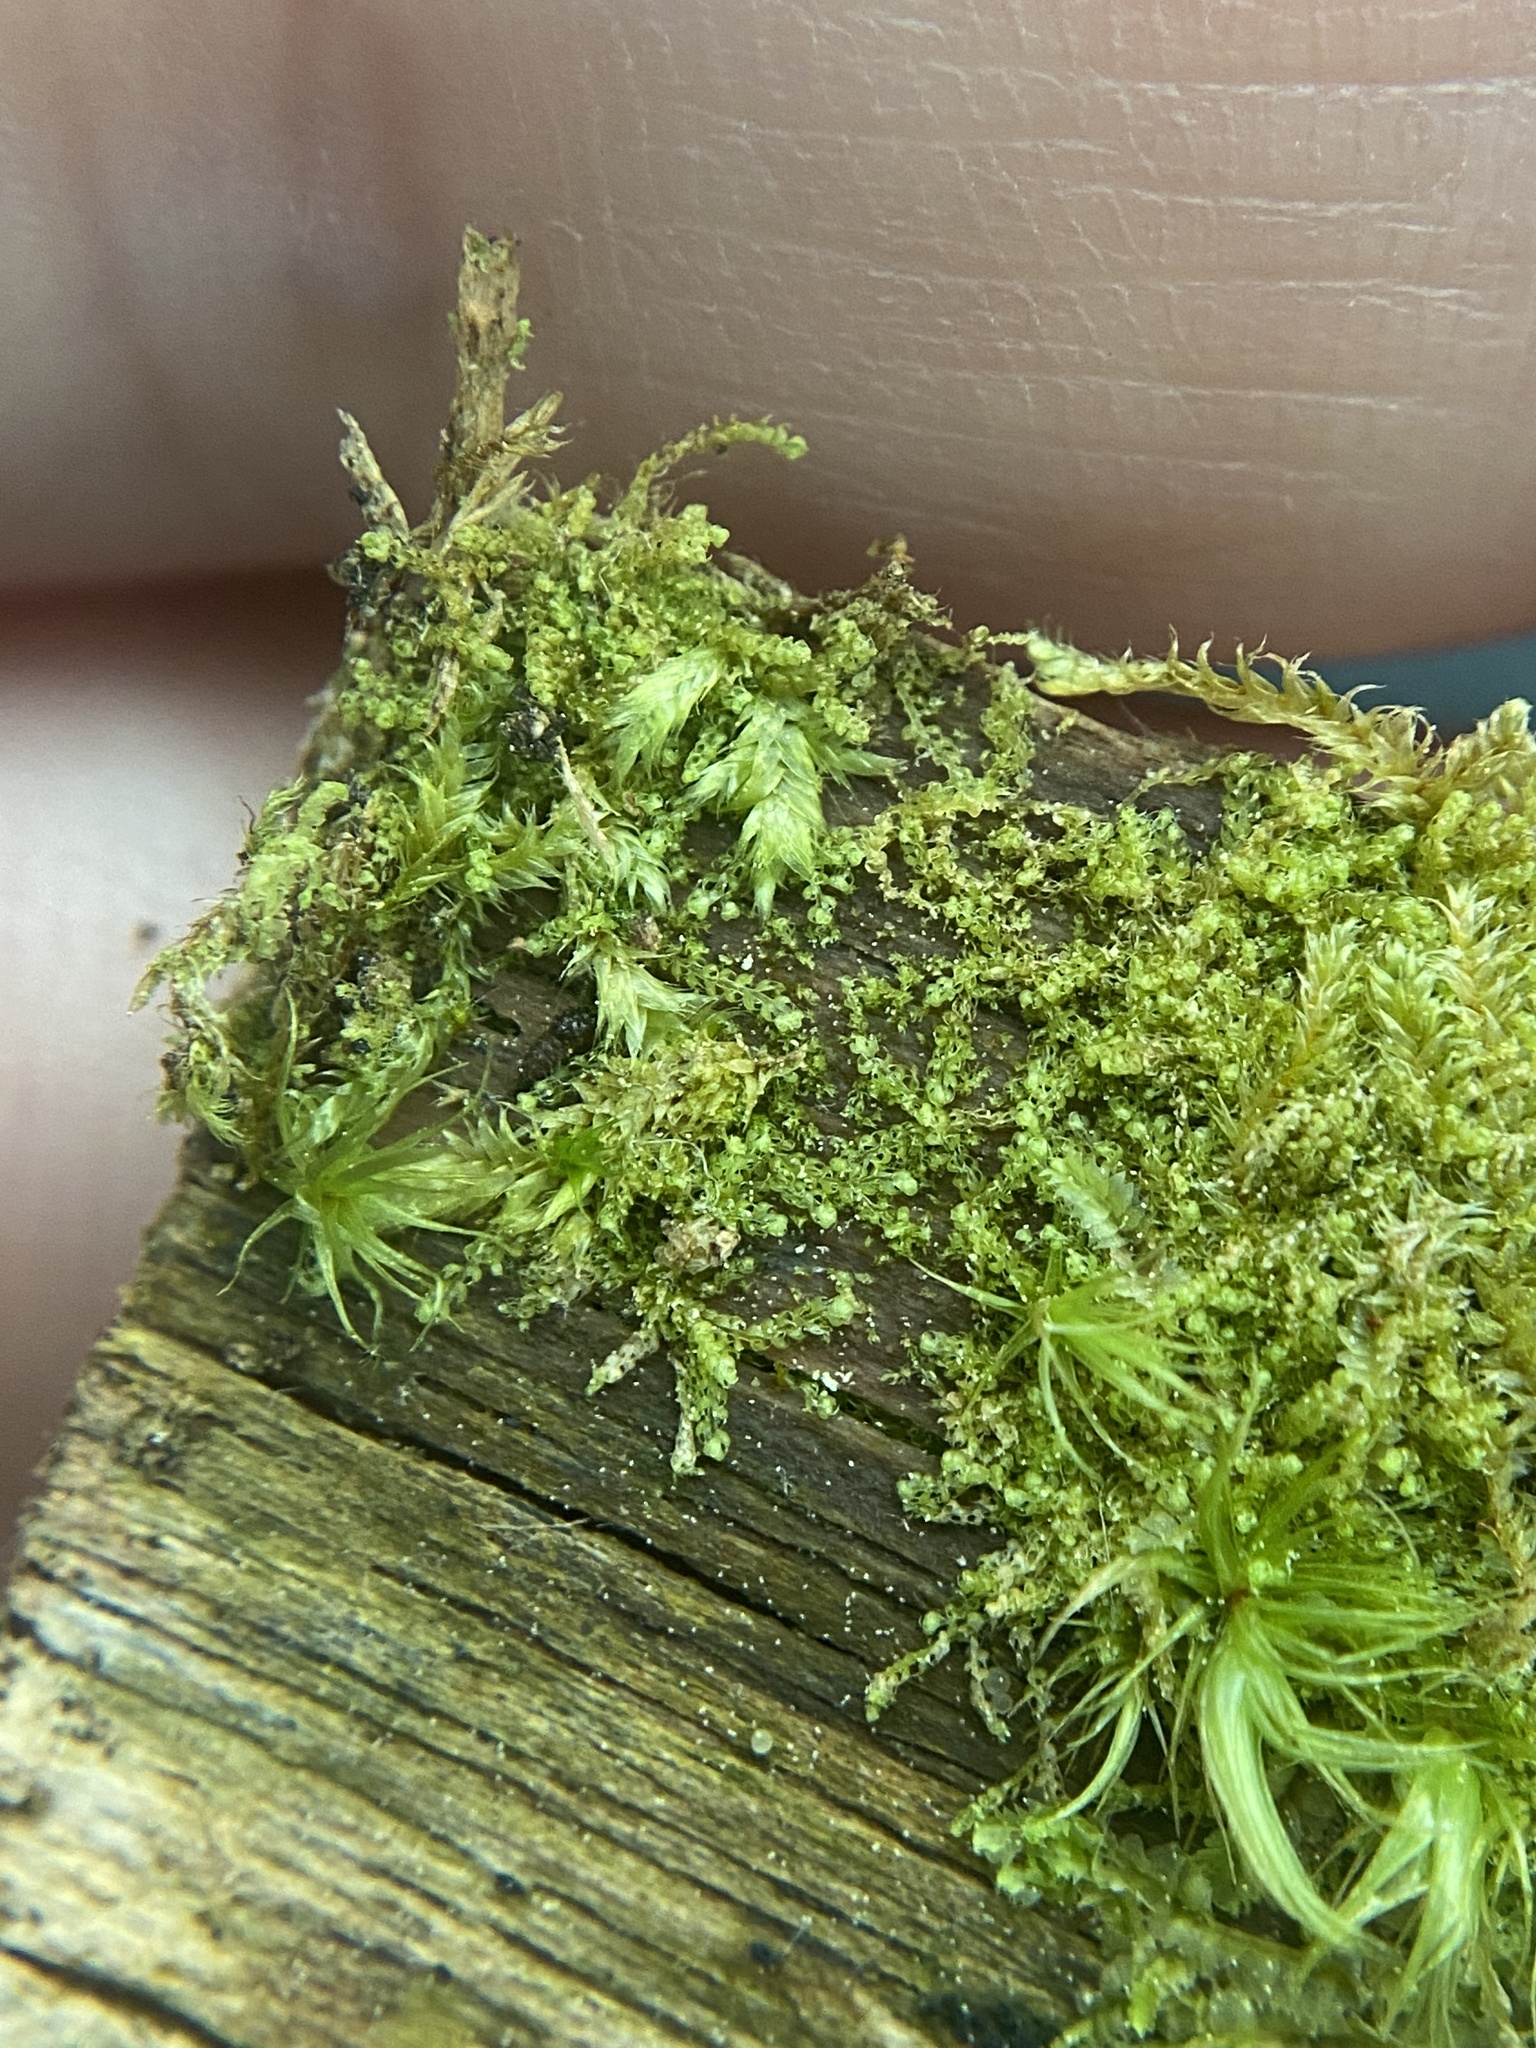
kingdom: Plantae
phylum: Marchantiophyta
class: Jungermanniopsida
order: Jungermanniales
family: Cephaloziaceae
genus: Nowellia
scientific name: Nowellia curvifolia
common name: Wood rustwort
